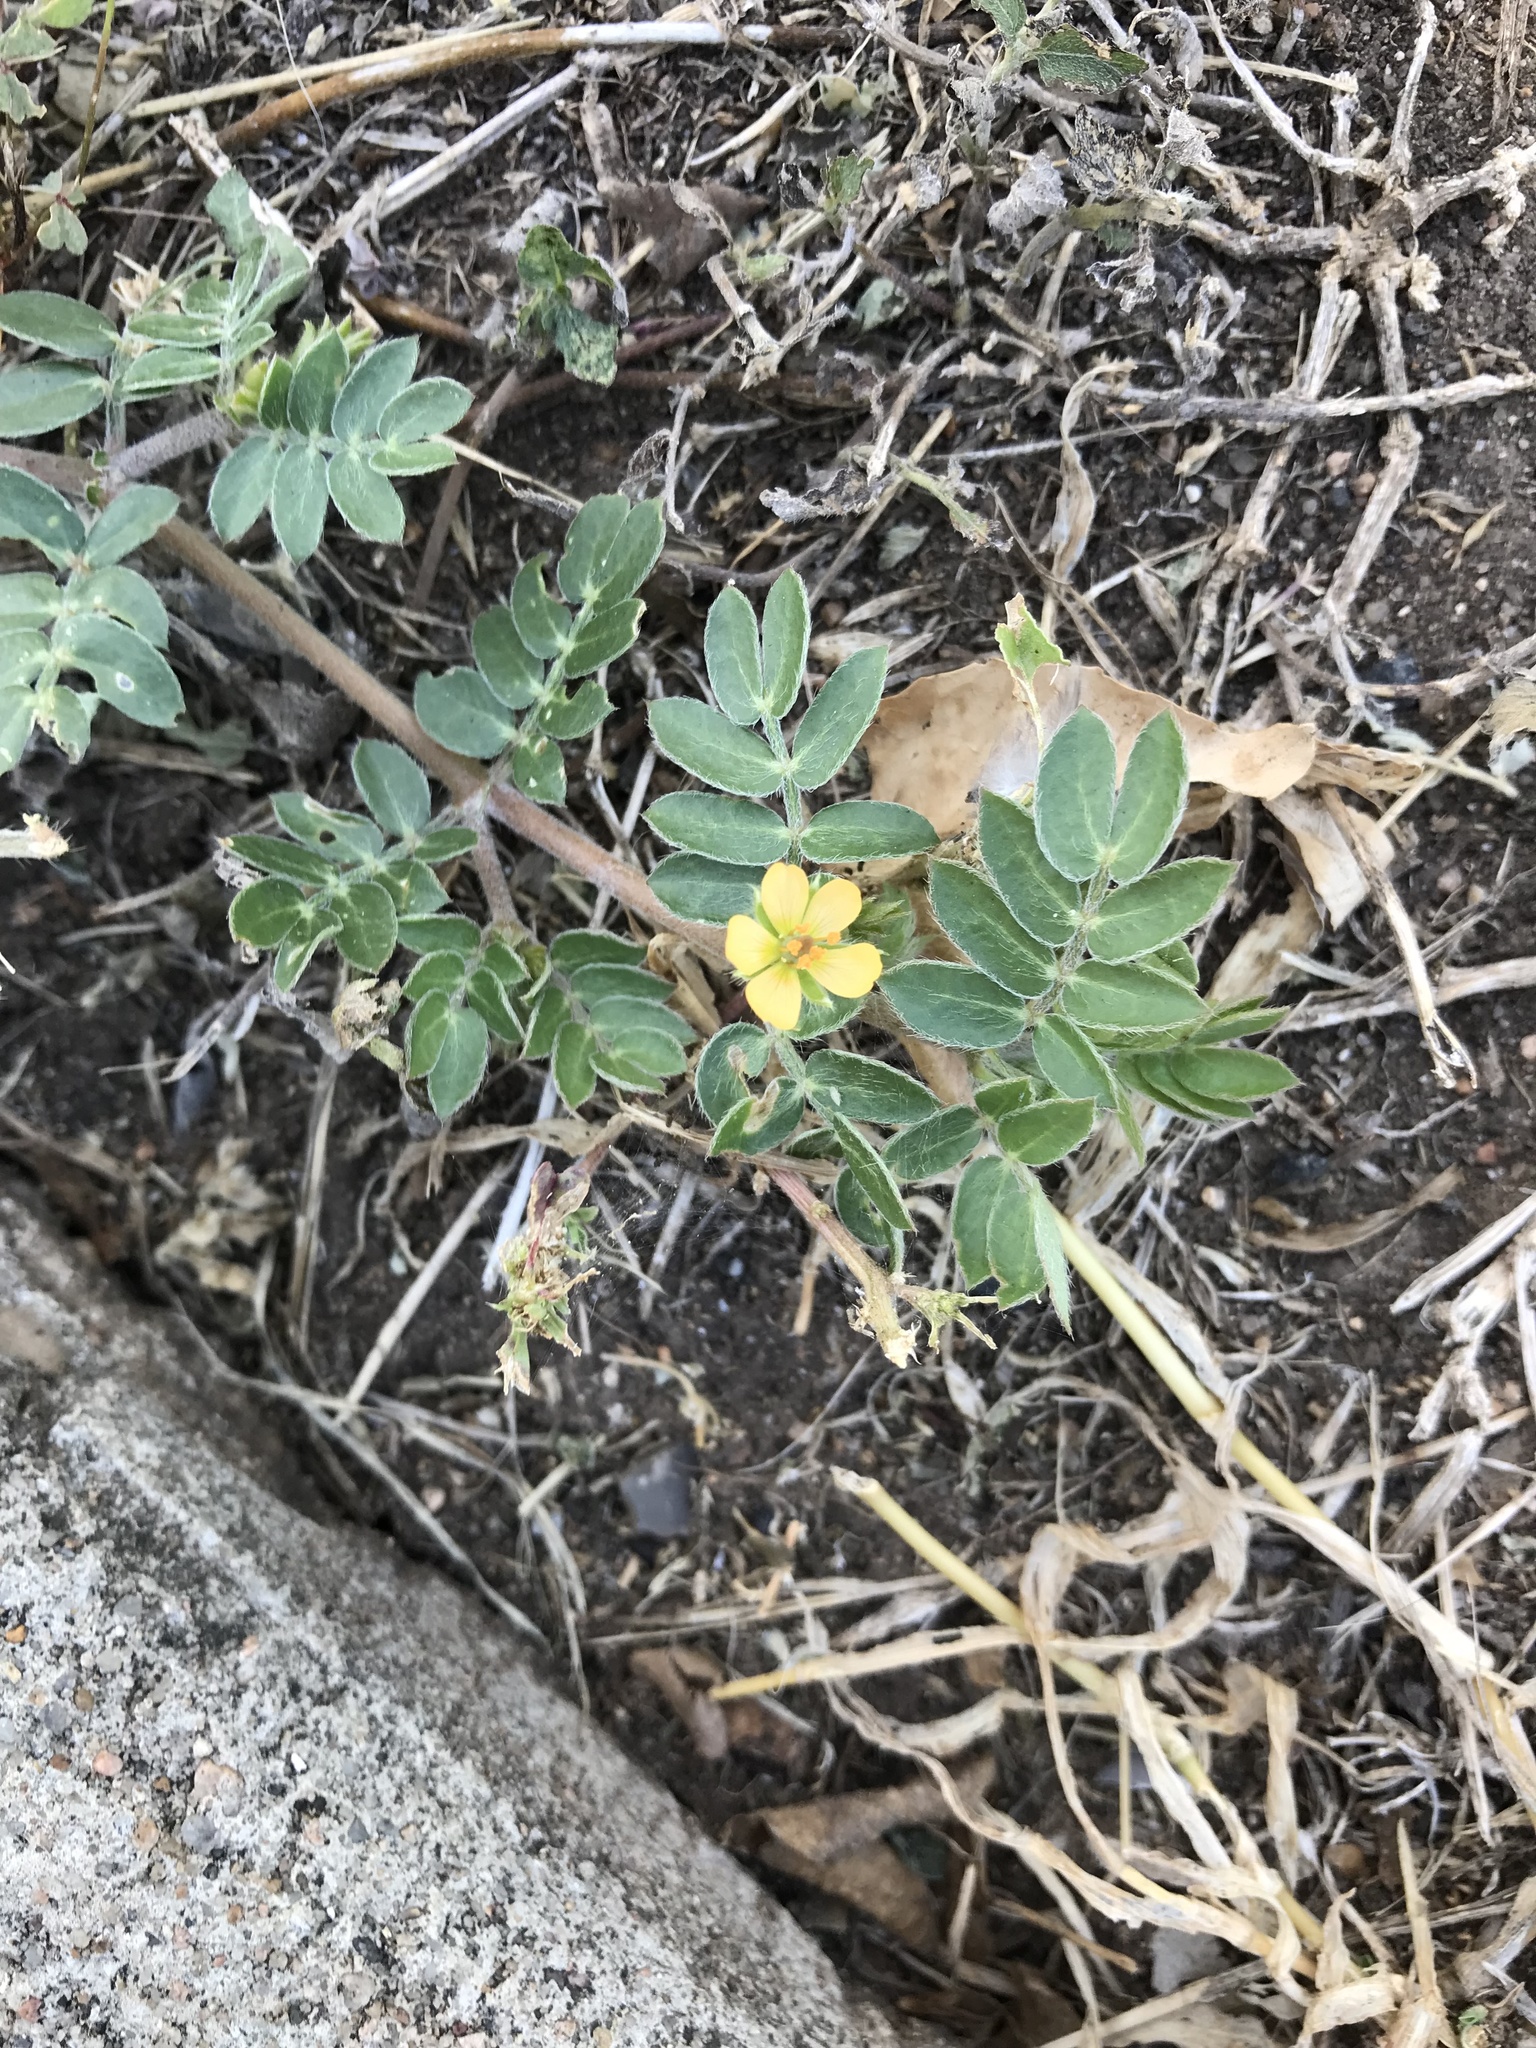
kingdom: Plantae
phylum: Tracheophyta
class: Magnoliopsida
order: Zygophyllales
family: Zygophyllaceae
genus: Kallstroemia
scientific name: Kallstroemia parviflora
